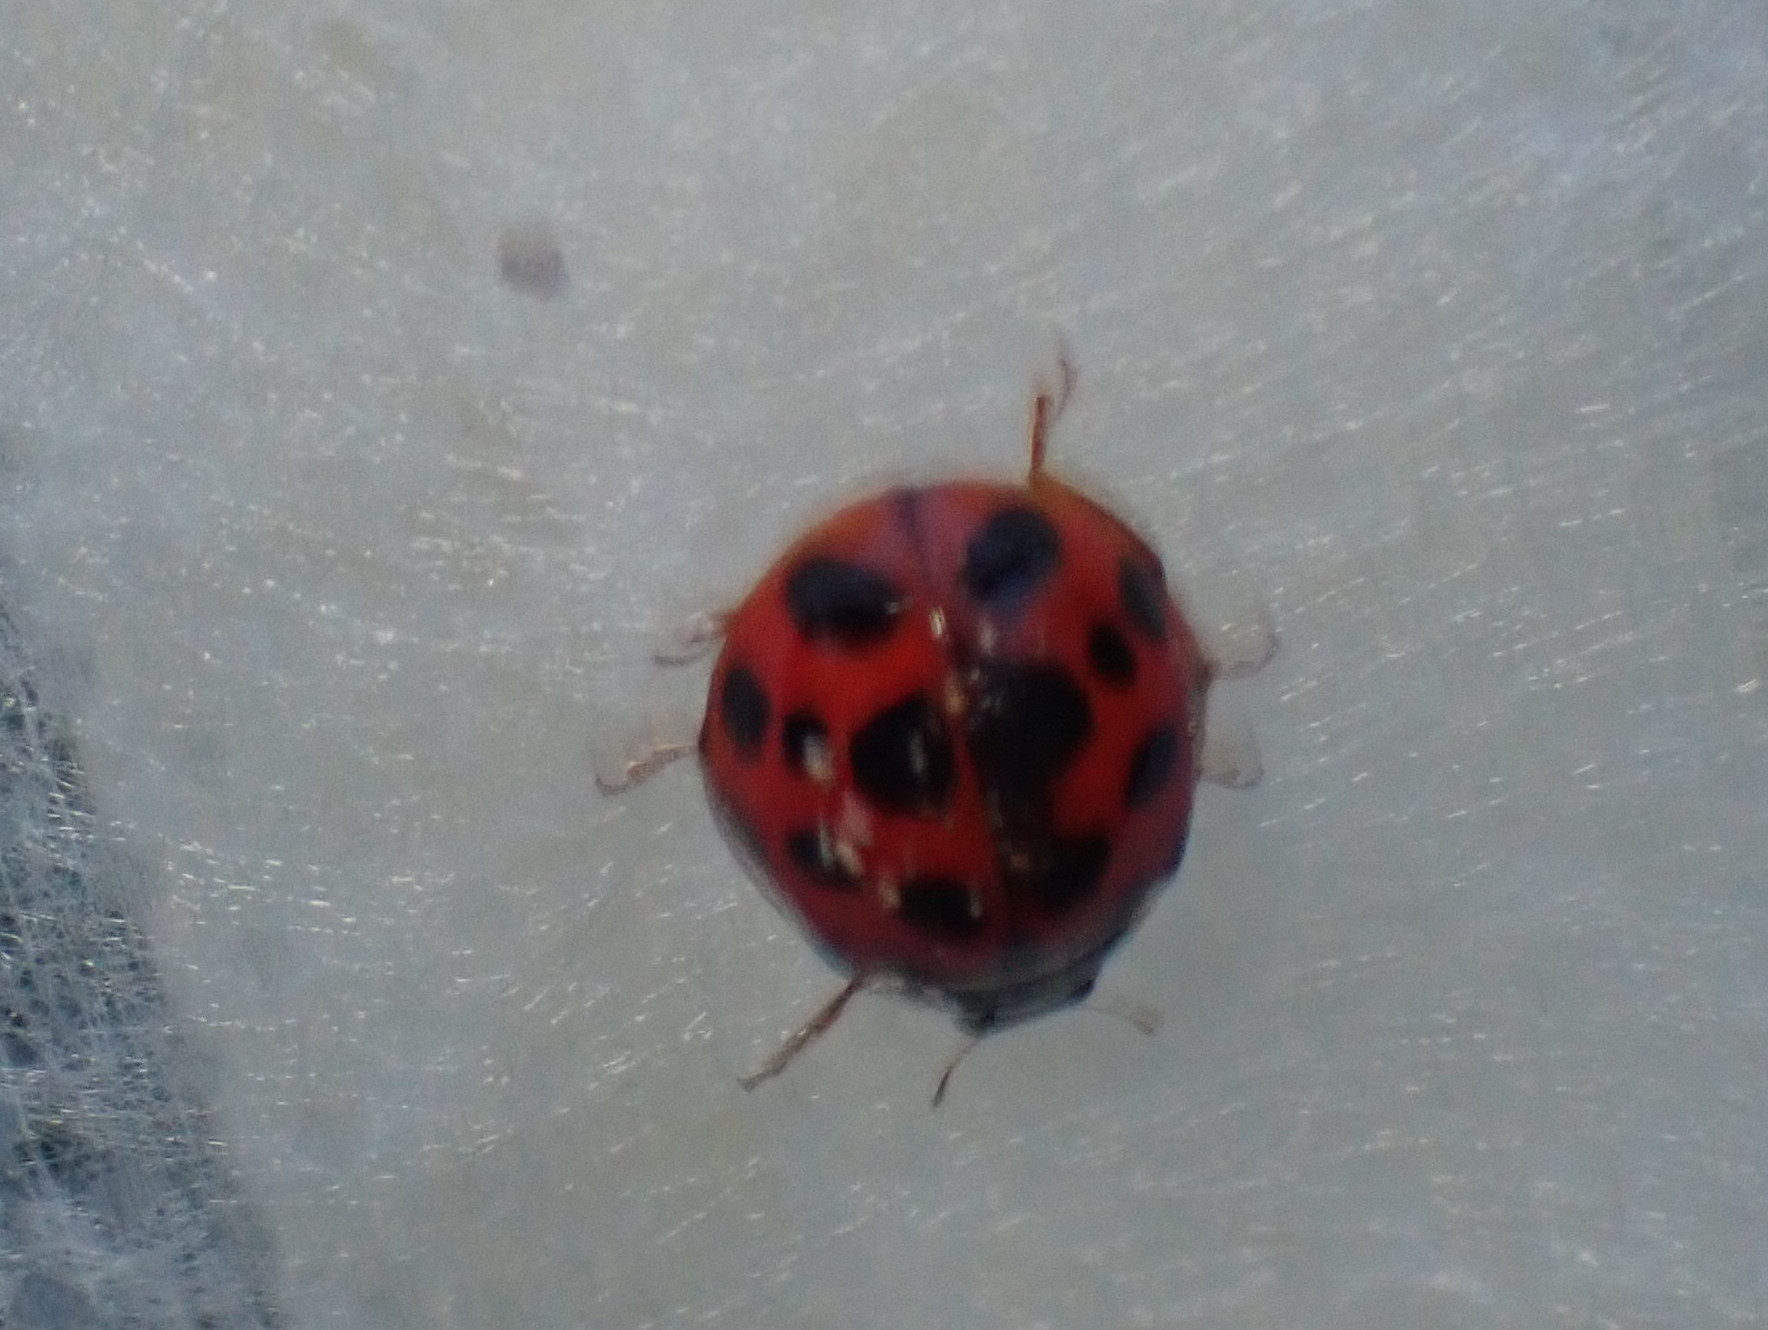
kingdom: Animalia
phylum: Arthropoda
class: Insecta
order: Coleoptera
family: Coccinellidae
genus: Harmonia
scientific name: Harmonia axyridis
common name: Harlequin ladybird
